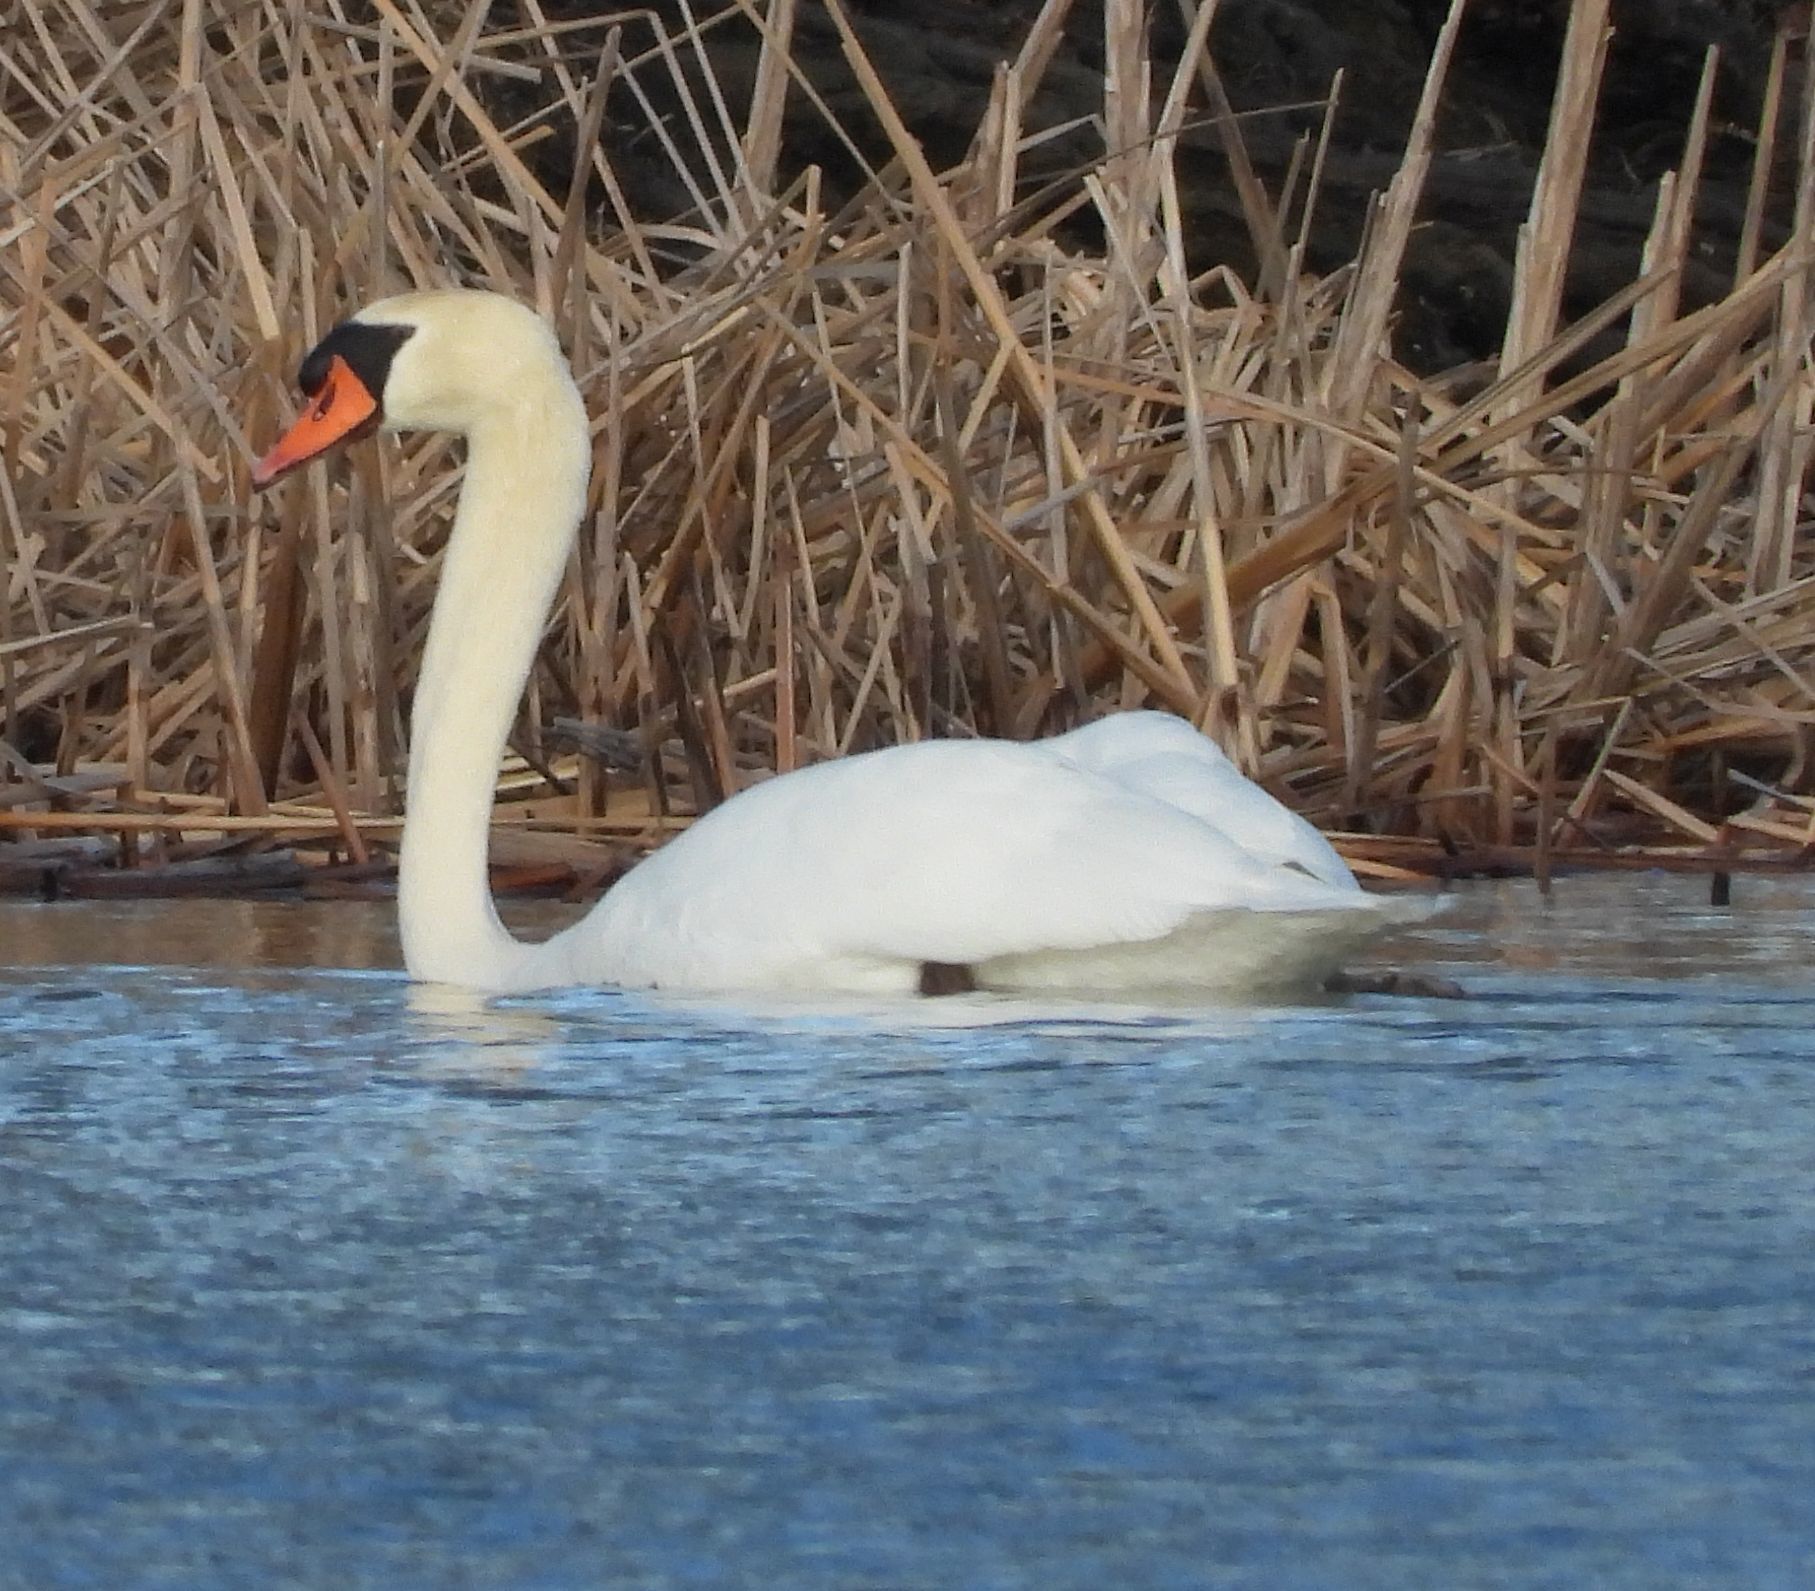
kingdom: Animalia
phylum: Chordata
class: Aves
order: Anseriformes
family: Anatidae
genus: Cygnus
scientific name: Cygnus olor
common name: Mute swan
